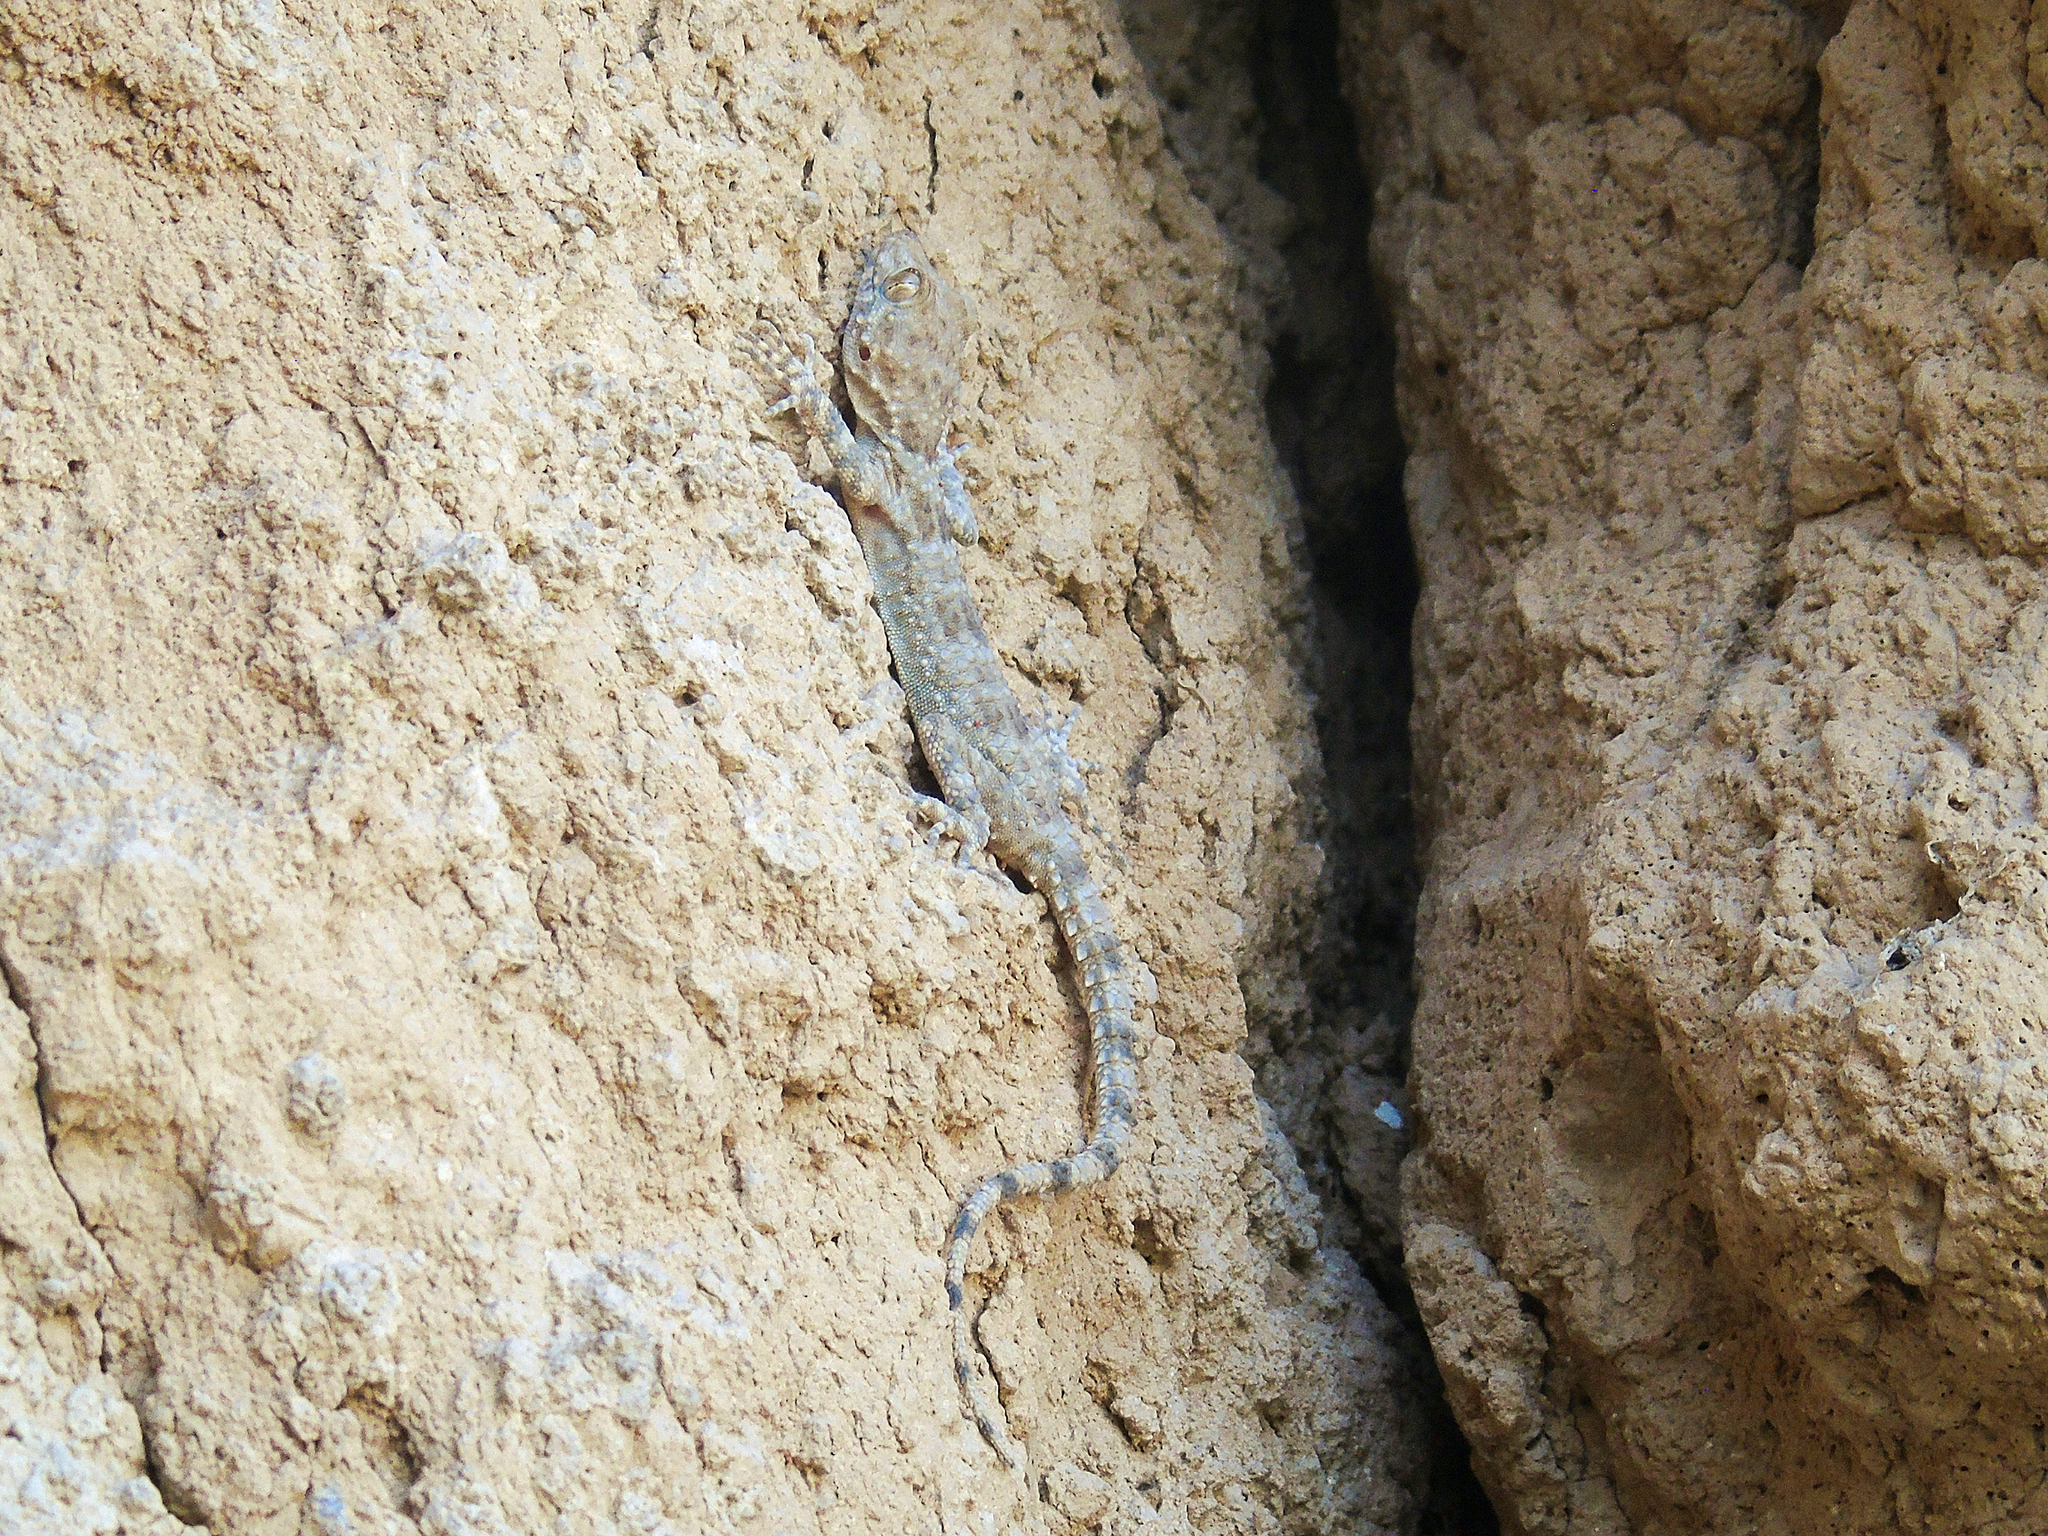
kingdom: Animalia
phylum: Chordata
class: Squamata
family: Gekkonidae
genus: Tenuidactylus
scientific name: Tenuidactylus fedtschenkoi
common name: Turkestan thin-toed gecko
